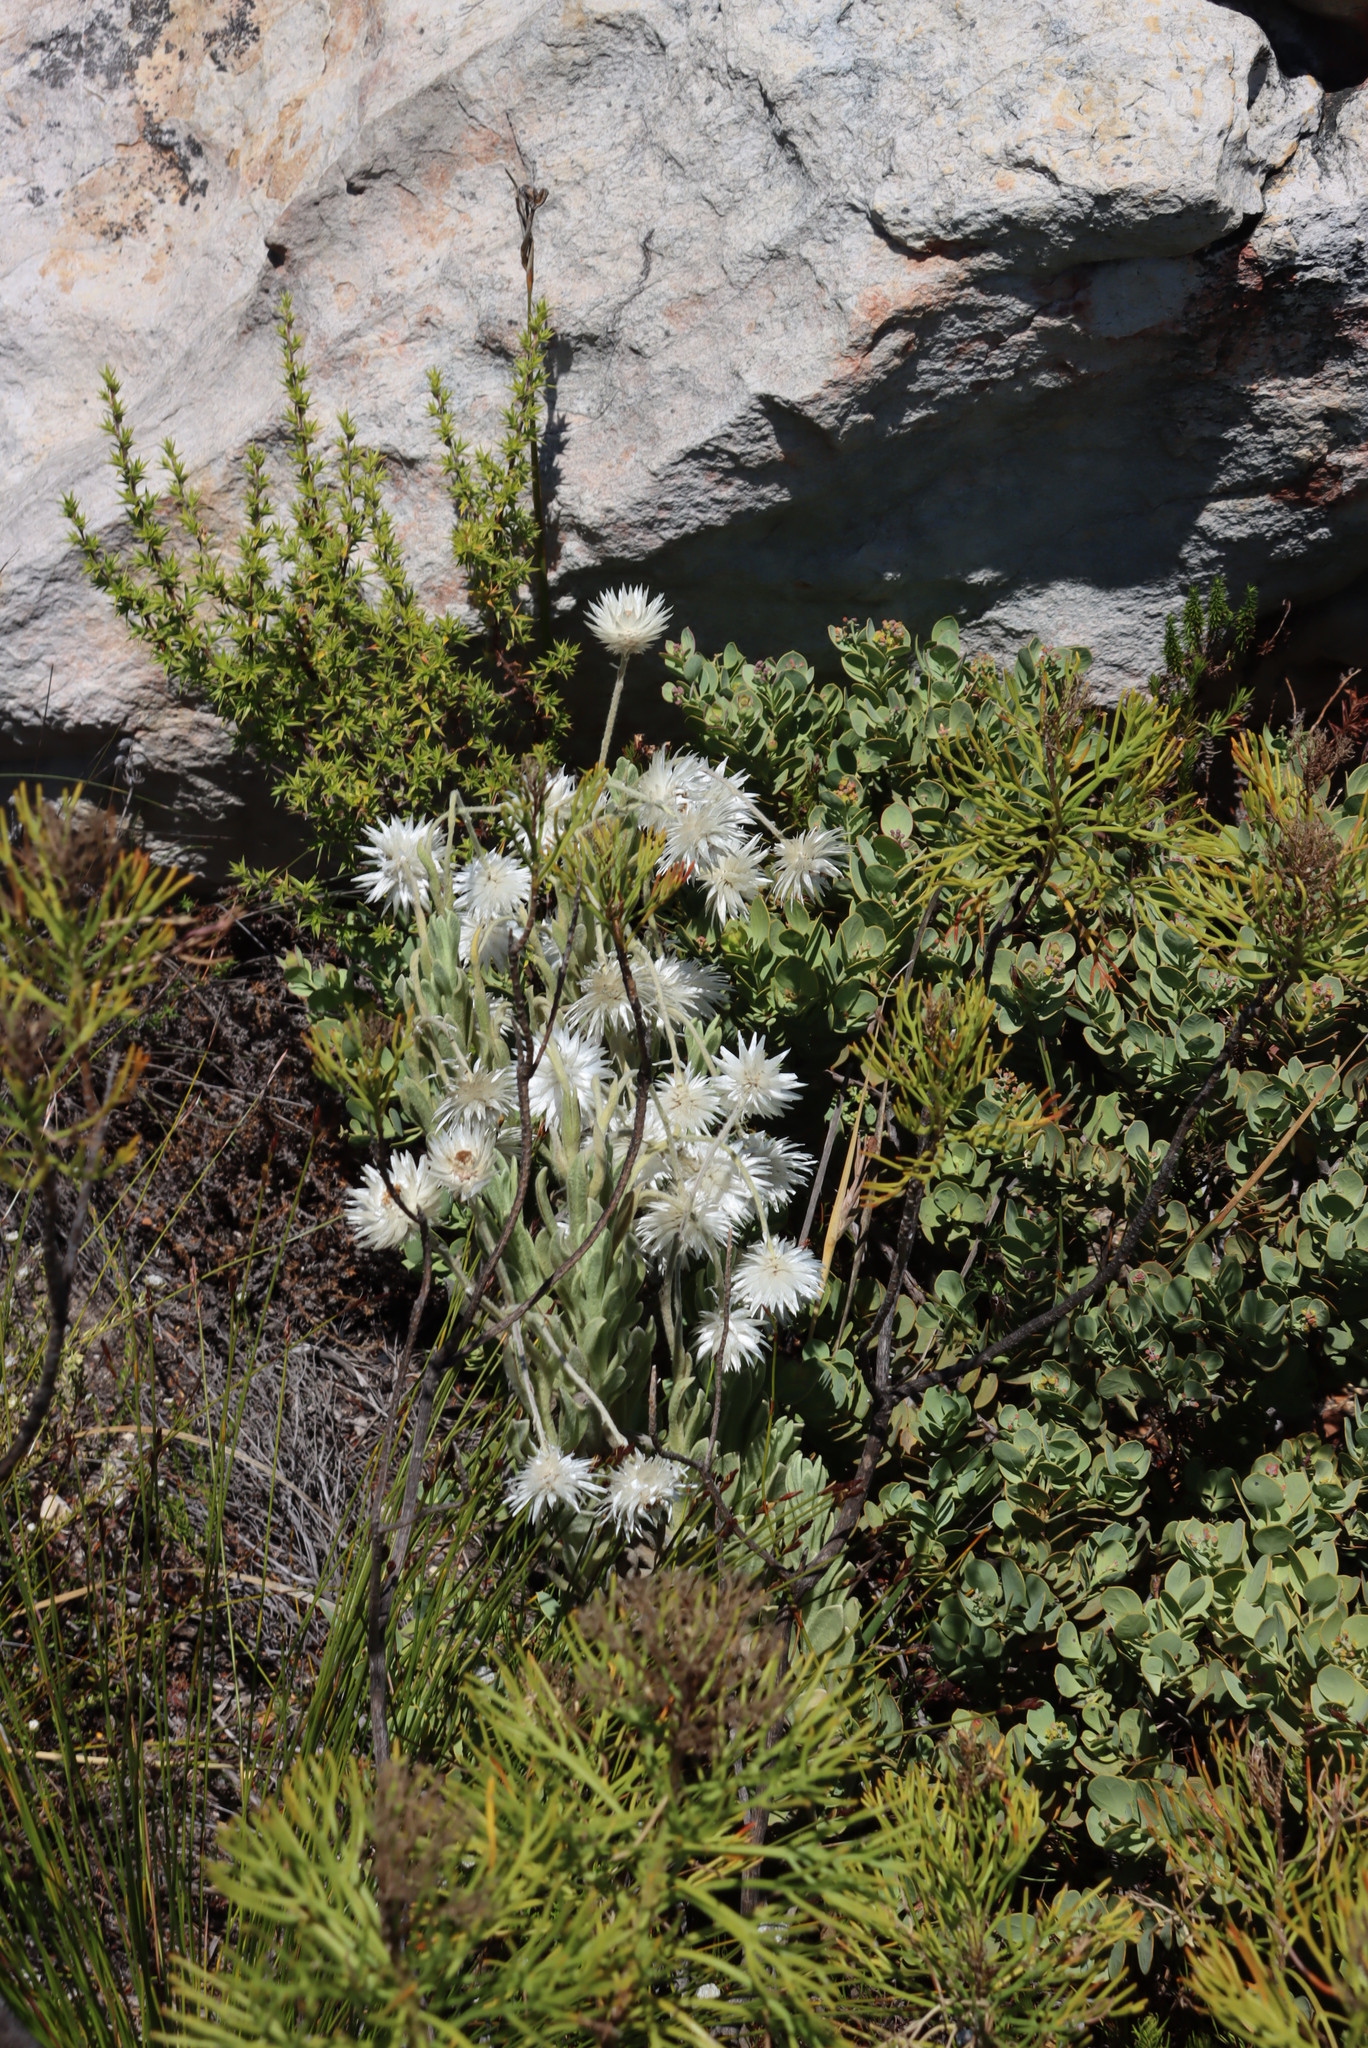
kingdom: Plantae
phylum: Tracheophyta
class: Magnoliopsida
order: Asterales
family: Asteraceae
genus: Syncarpha
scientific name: Syncarpha vestita
